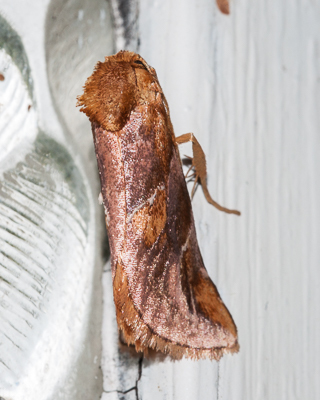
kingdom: Animalia
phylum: Arthropoda
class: Insecta
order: Lepidoptera
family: Limacodidae
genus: Crothaema
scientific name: Crothaema sericea
